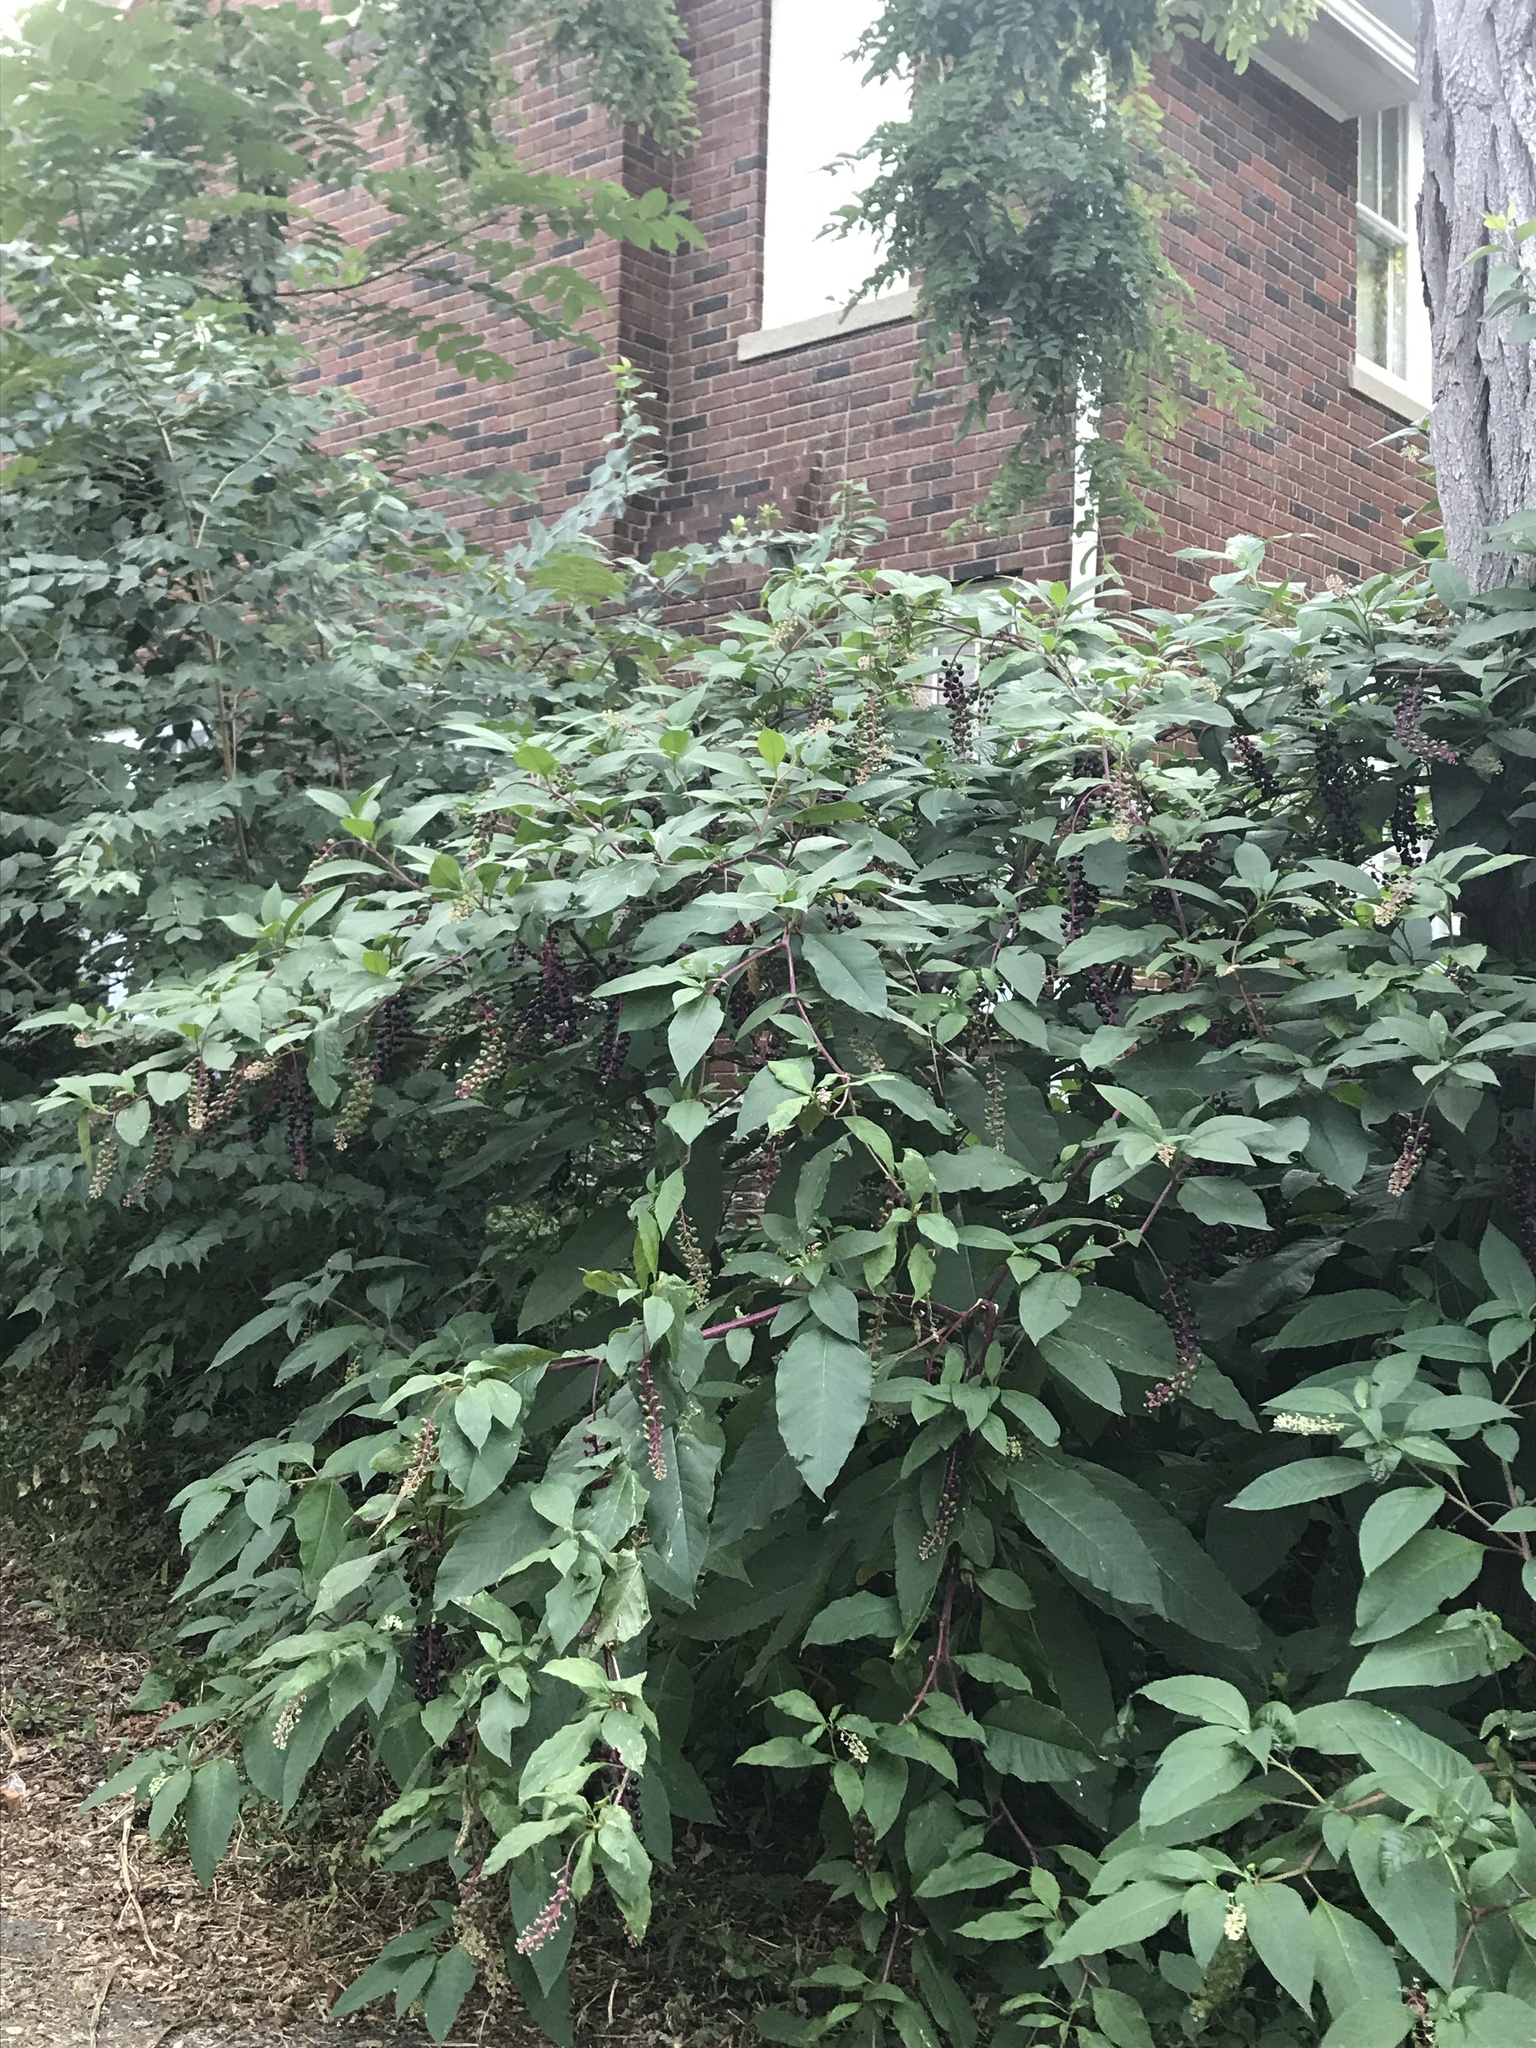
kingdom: Plantae
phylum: Tracheophyta
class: Magnoliopsida
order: Caryophyllales
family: Phytolaccaceae
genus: Phytolacca
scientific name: Phytolacca americana
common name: American pokeweed
